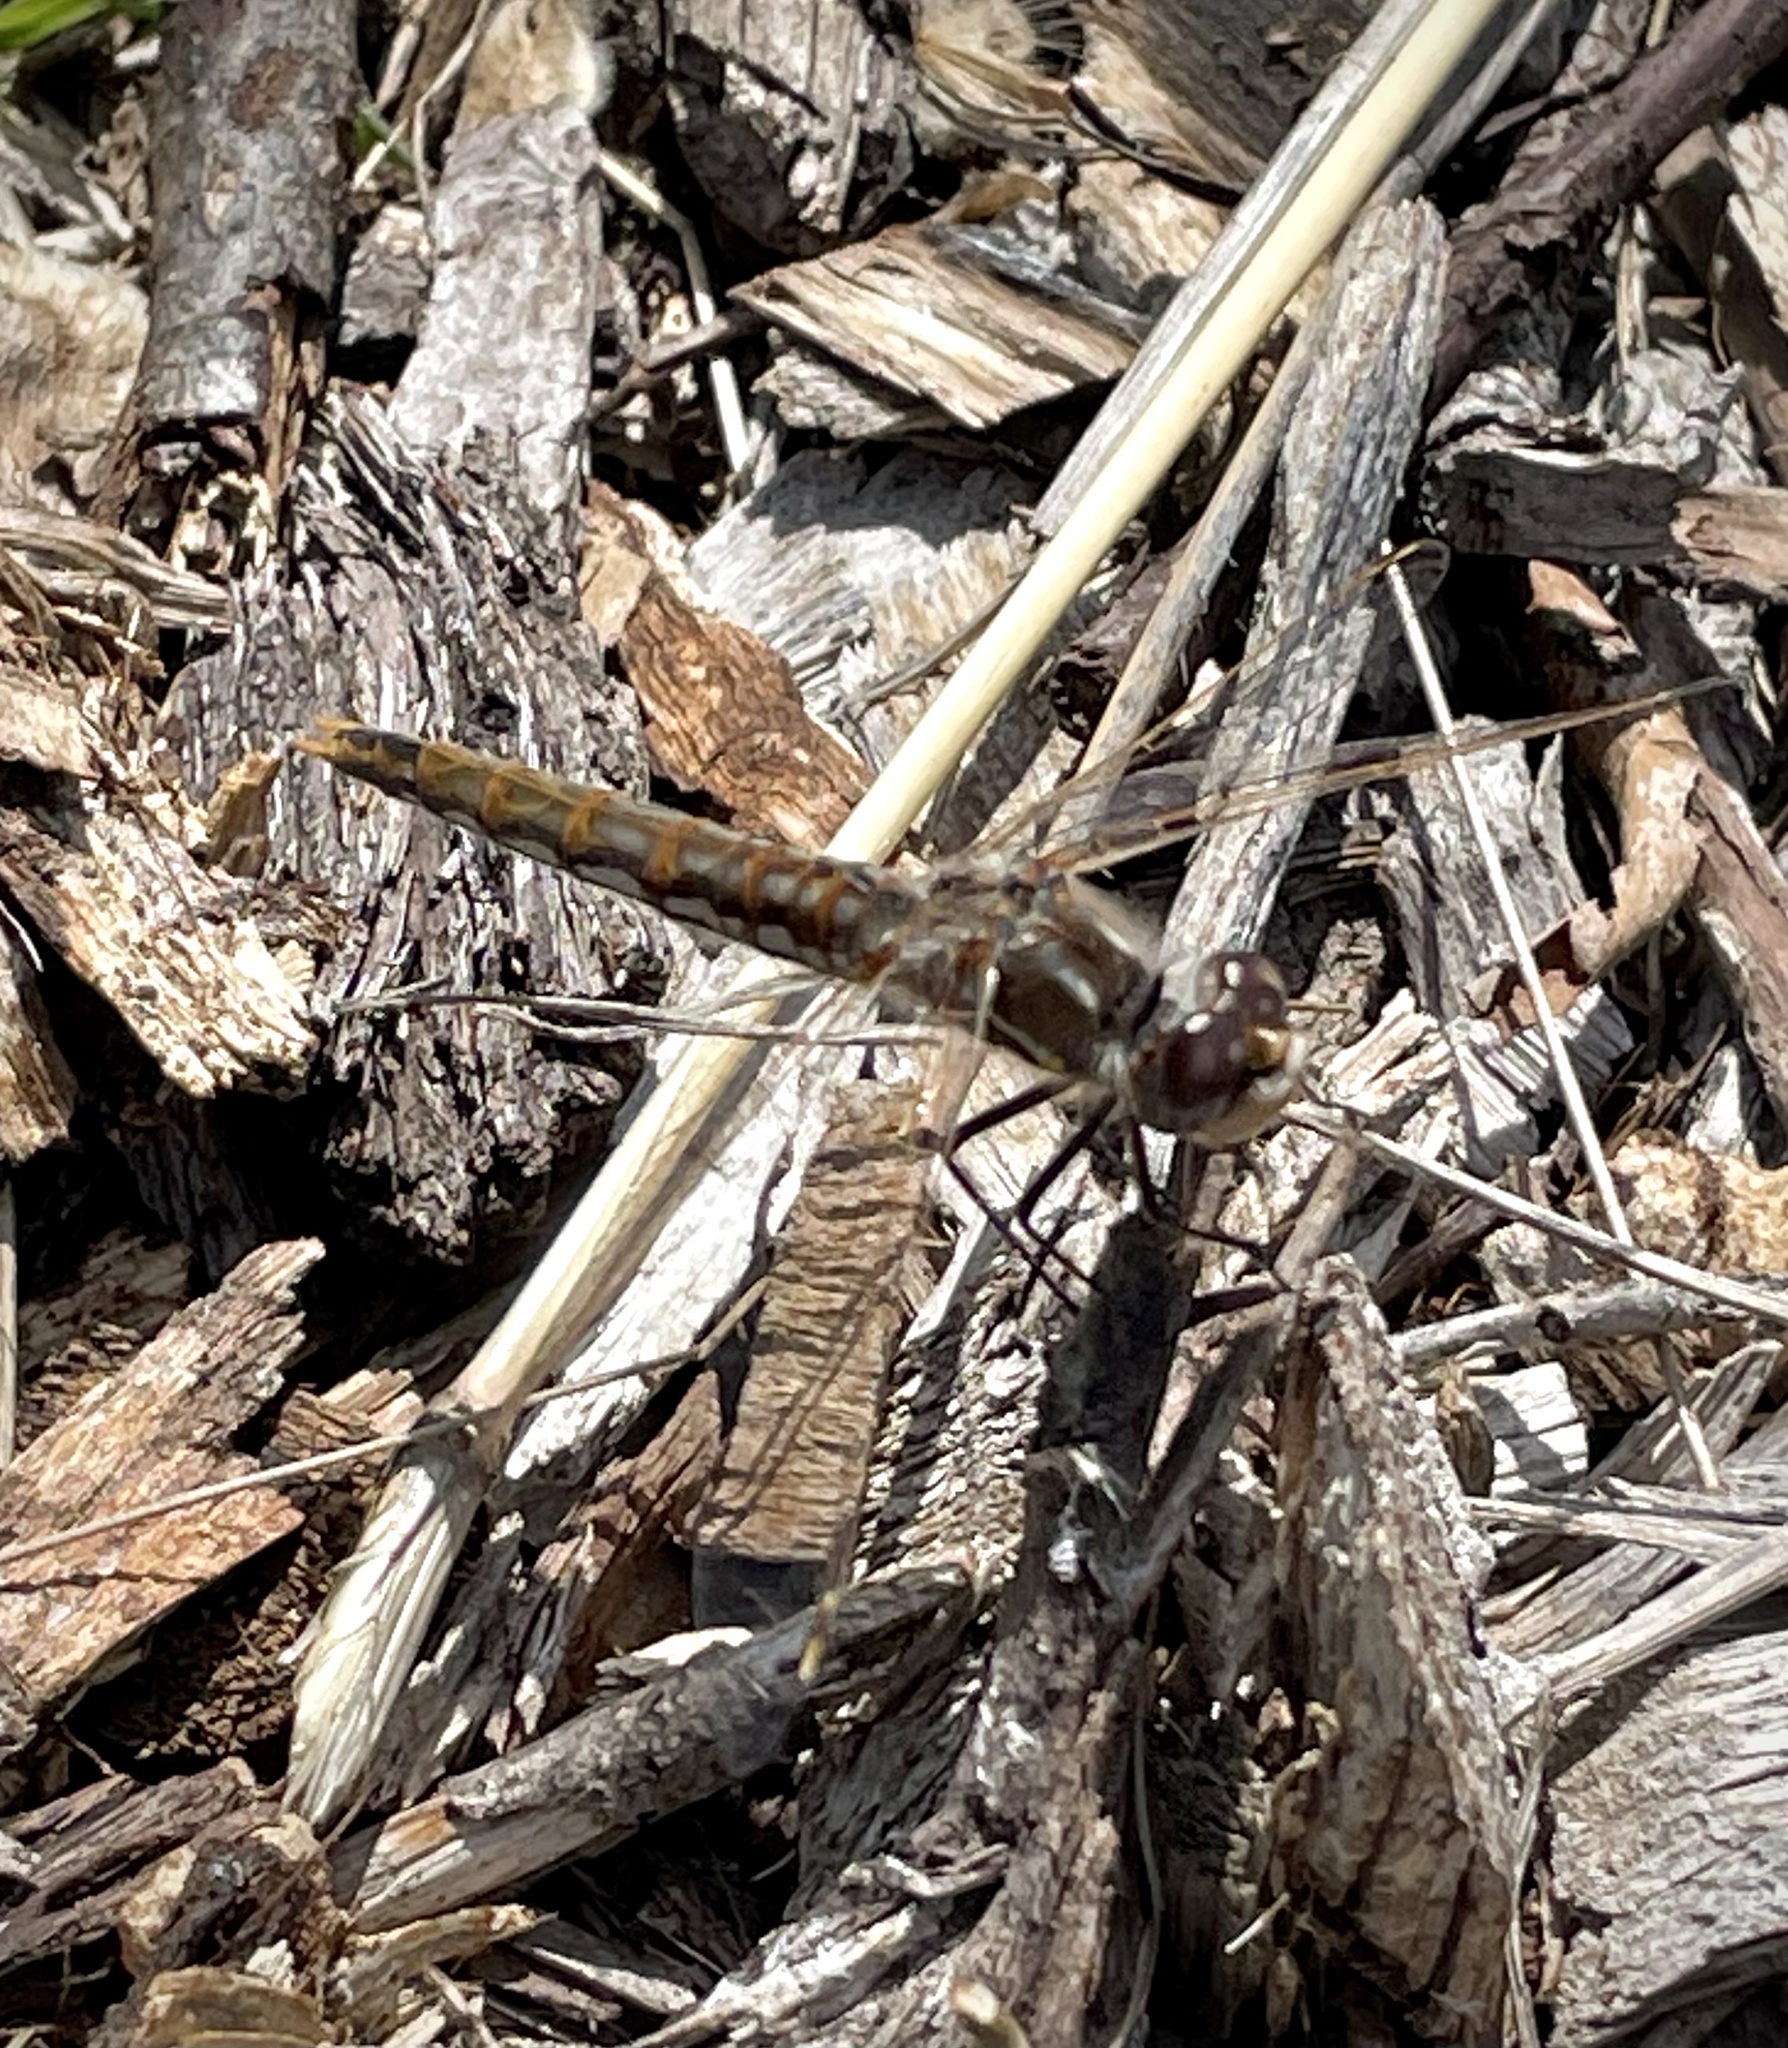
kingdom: Animalia
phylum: Arthropoda
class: Insecta
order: Odonata
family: Libellulidae
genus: Sympetrum
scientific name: Sympetrum corruptum
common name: Variegated meadowhawk
